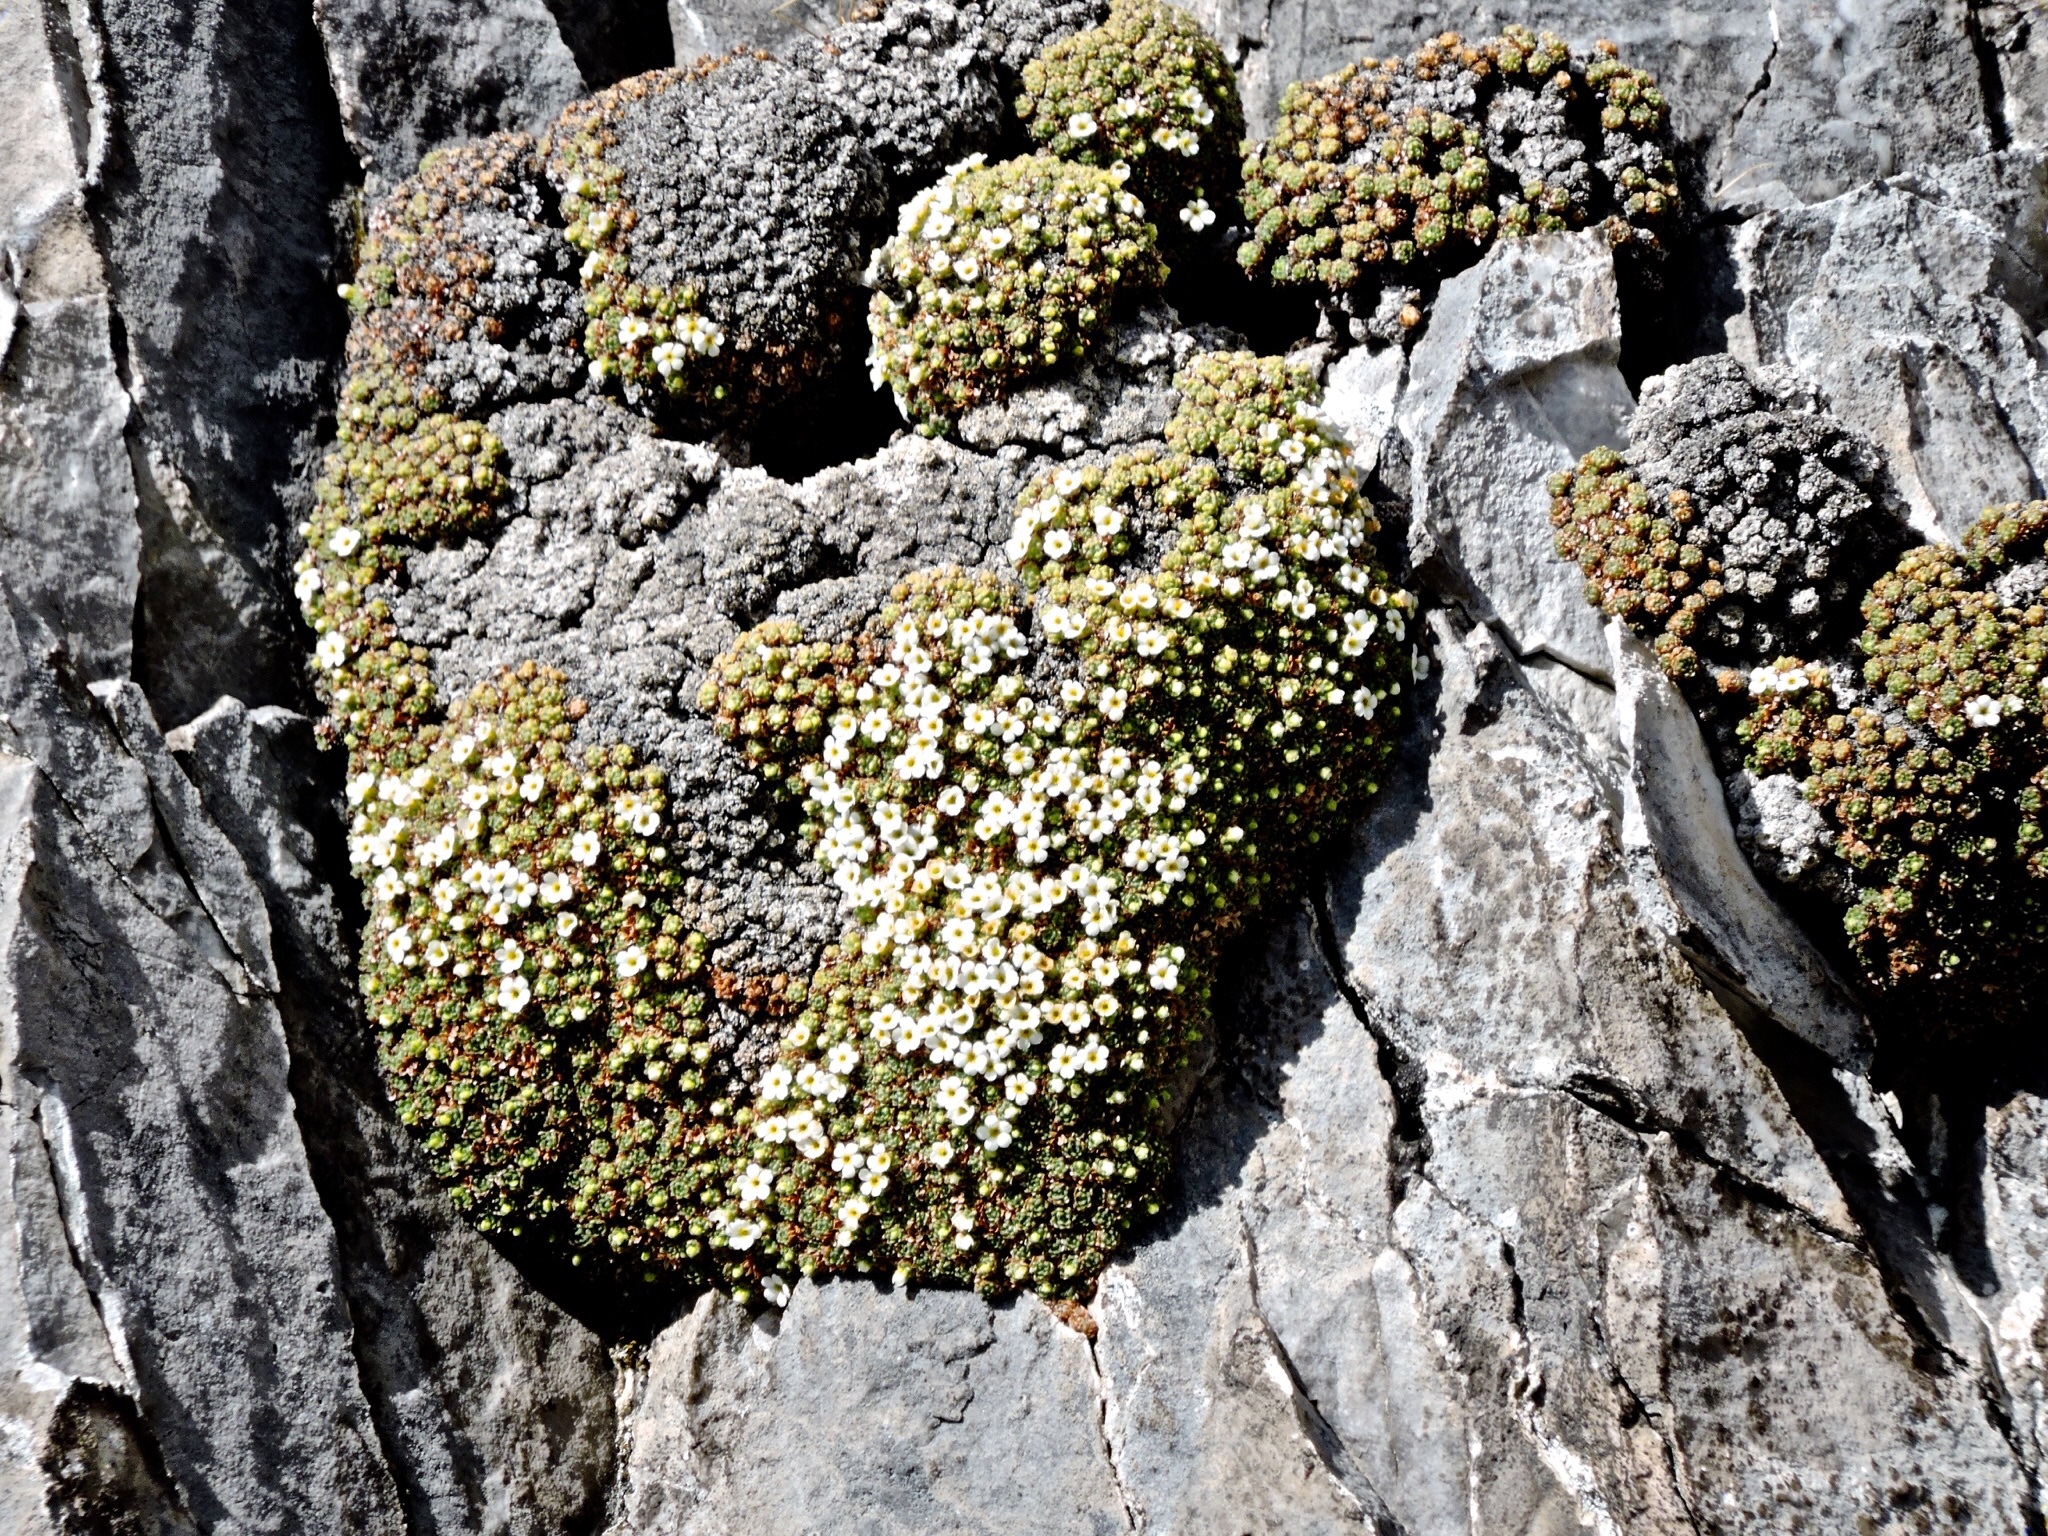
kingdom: Plantae
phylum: Tracheophyta
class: Magnoliopsida
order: Ericales
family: Primulaceae
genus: Androsace
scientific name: Androsace helvetica
